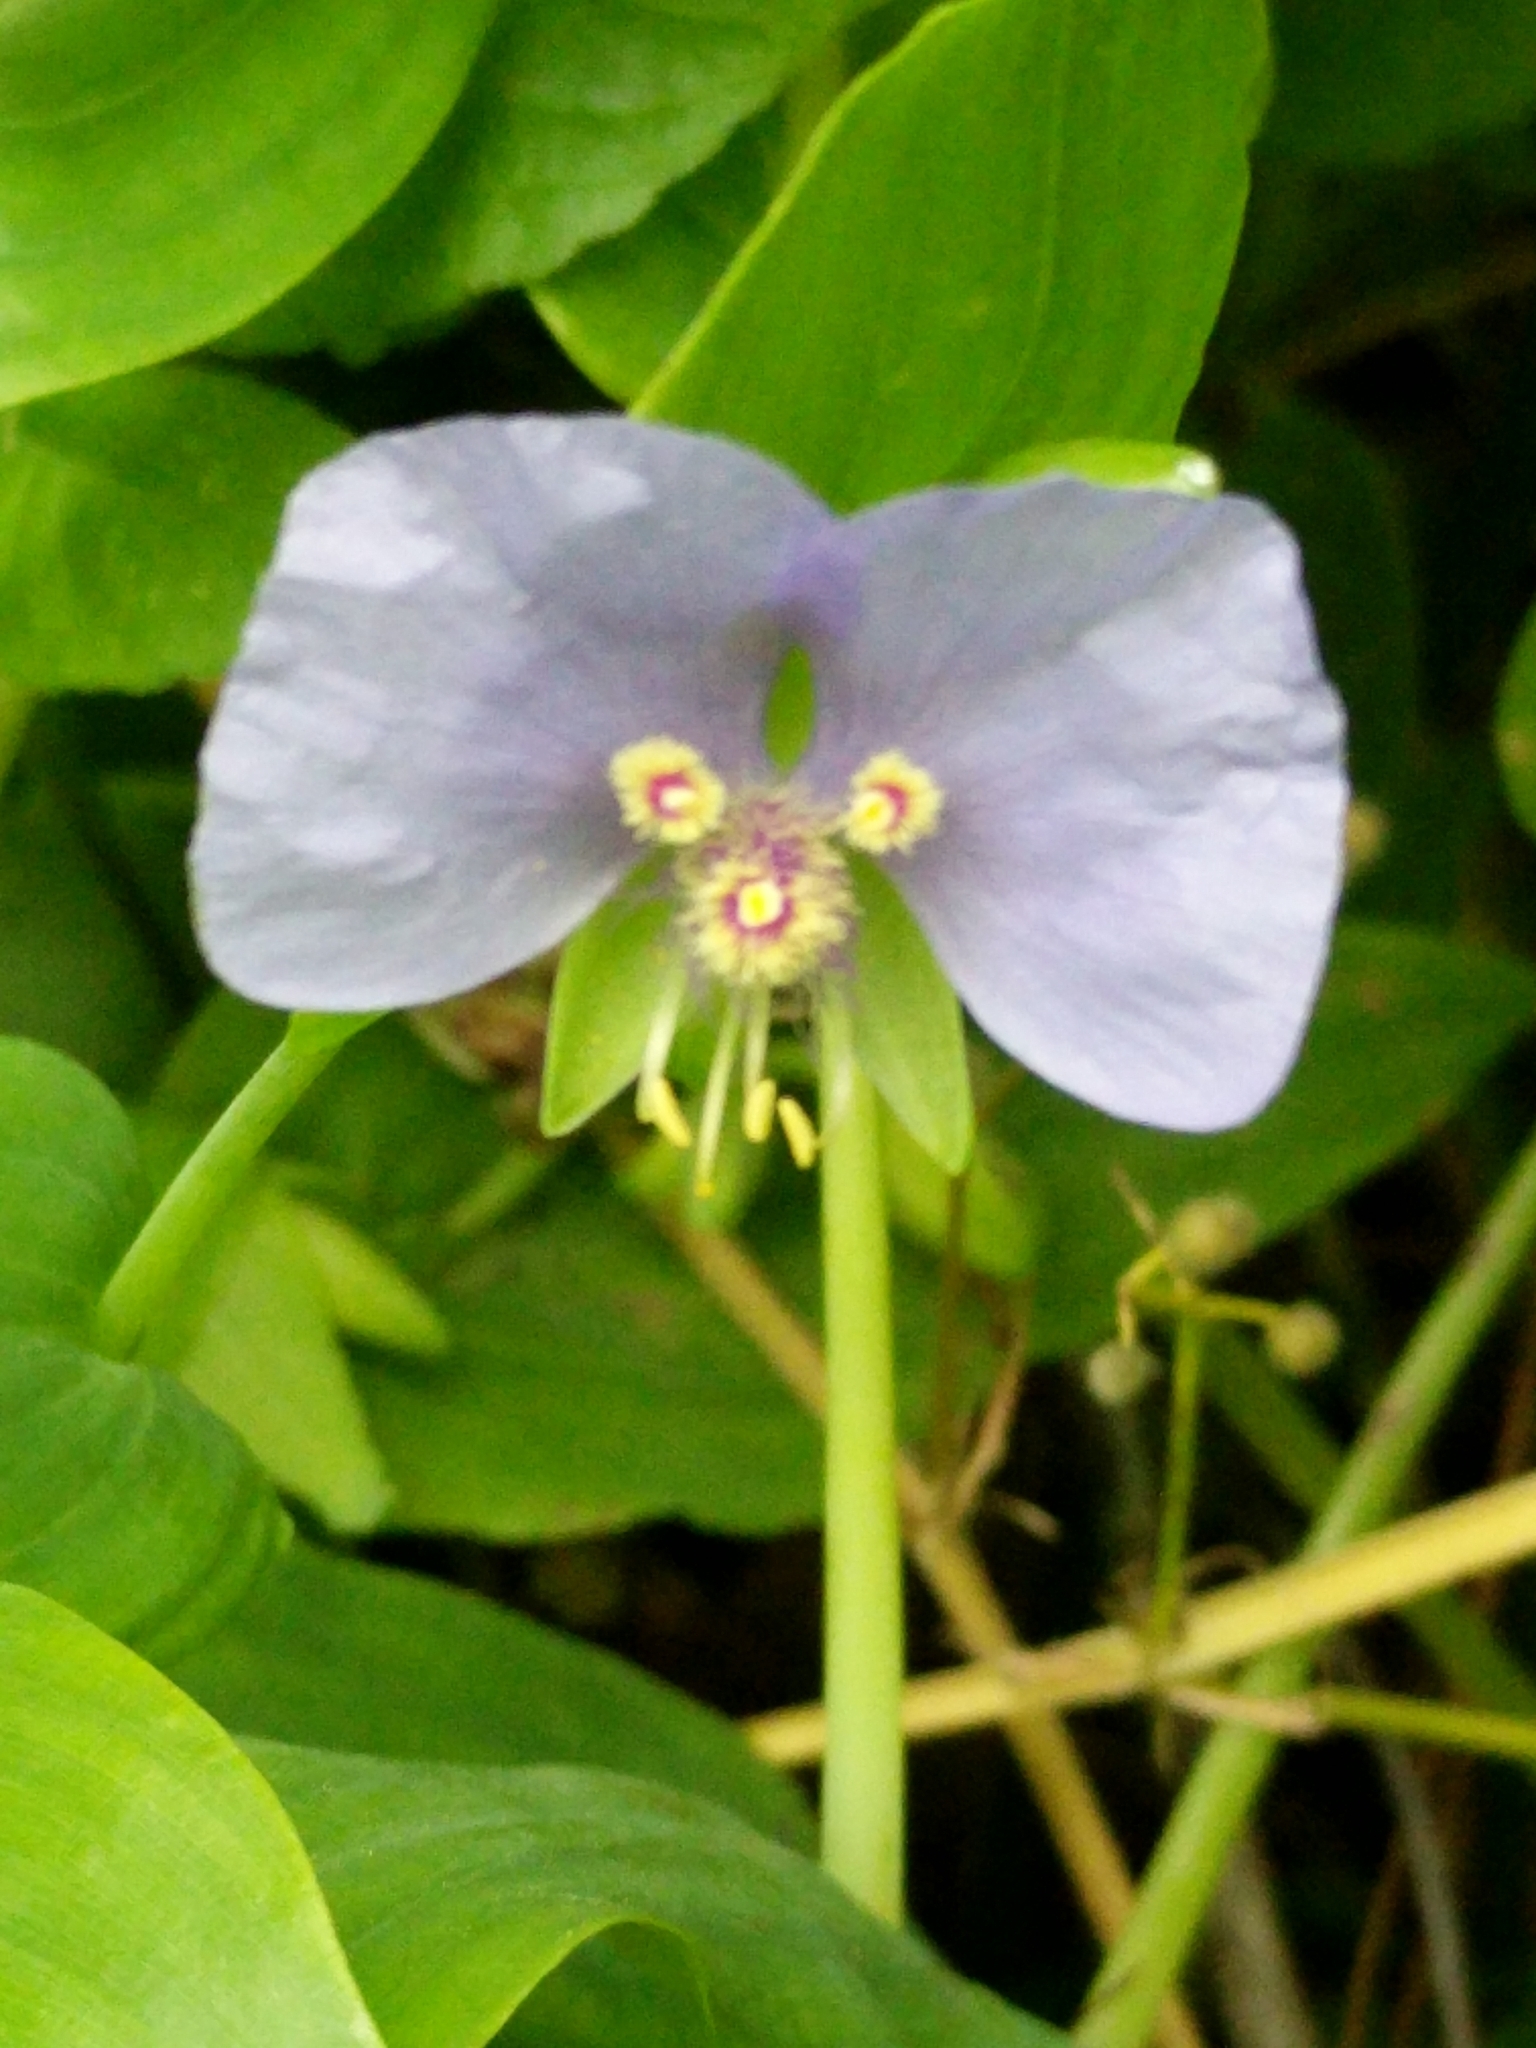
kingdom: Plantae
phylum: Tracheophyta
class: Liliopsida
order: Commelinales
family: Commelinaceae
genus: Tinantia
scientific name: Tinantia anomala
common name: False dayflower
